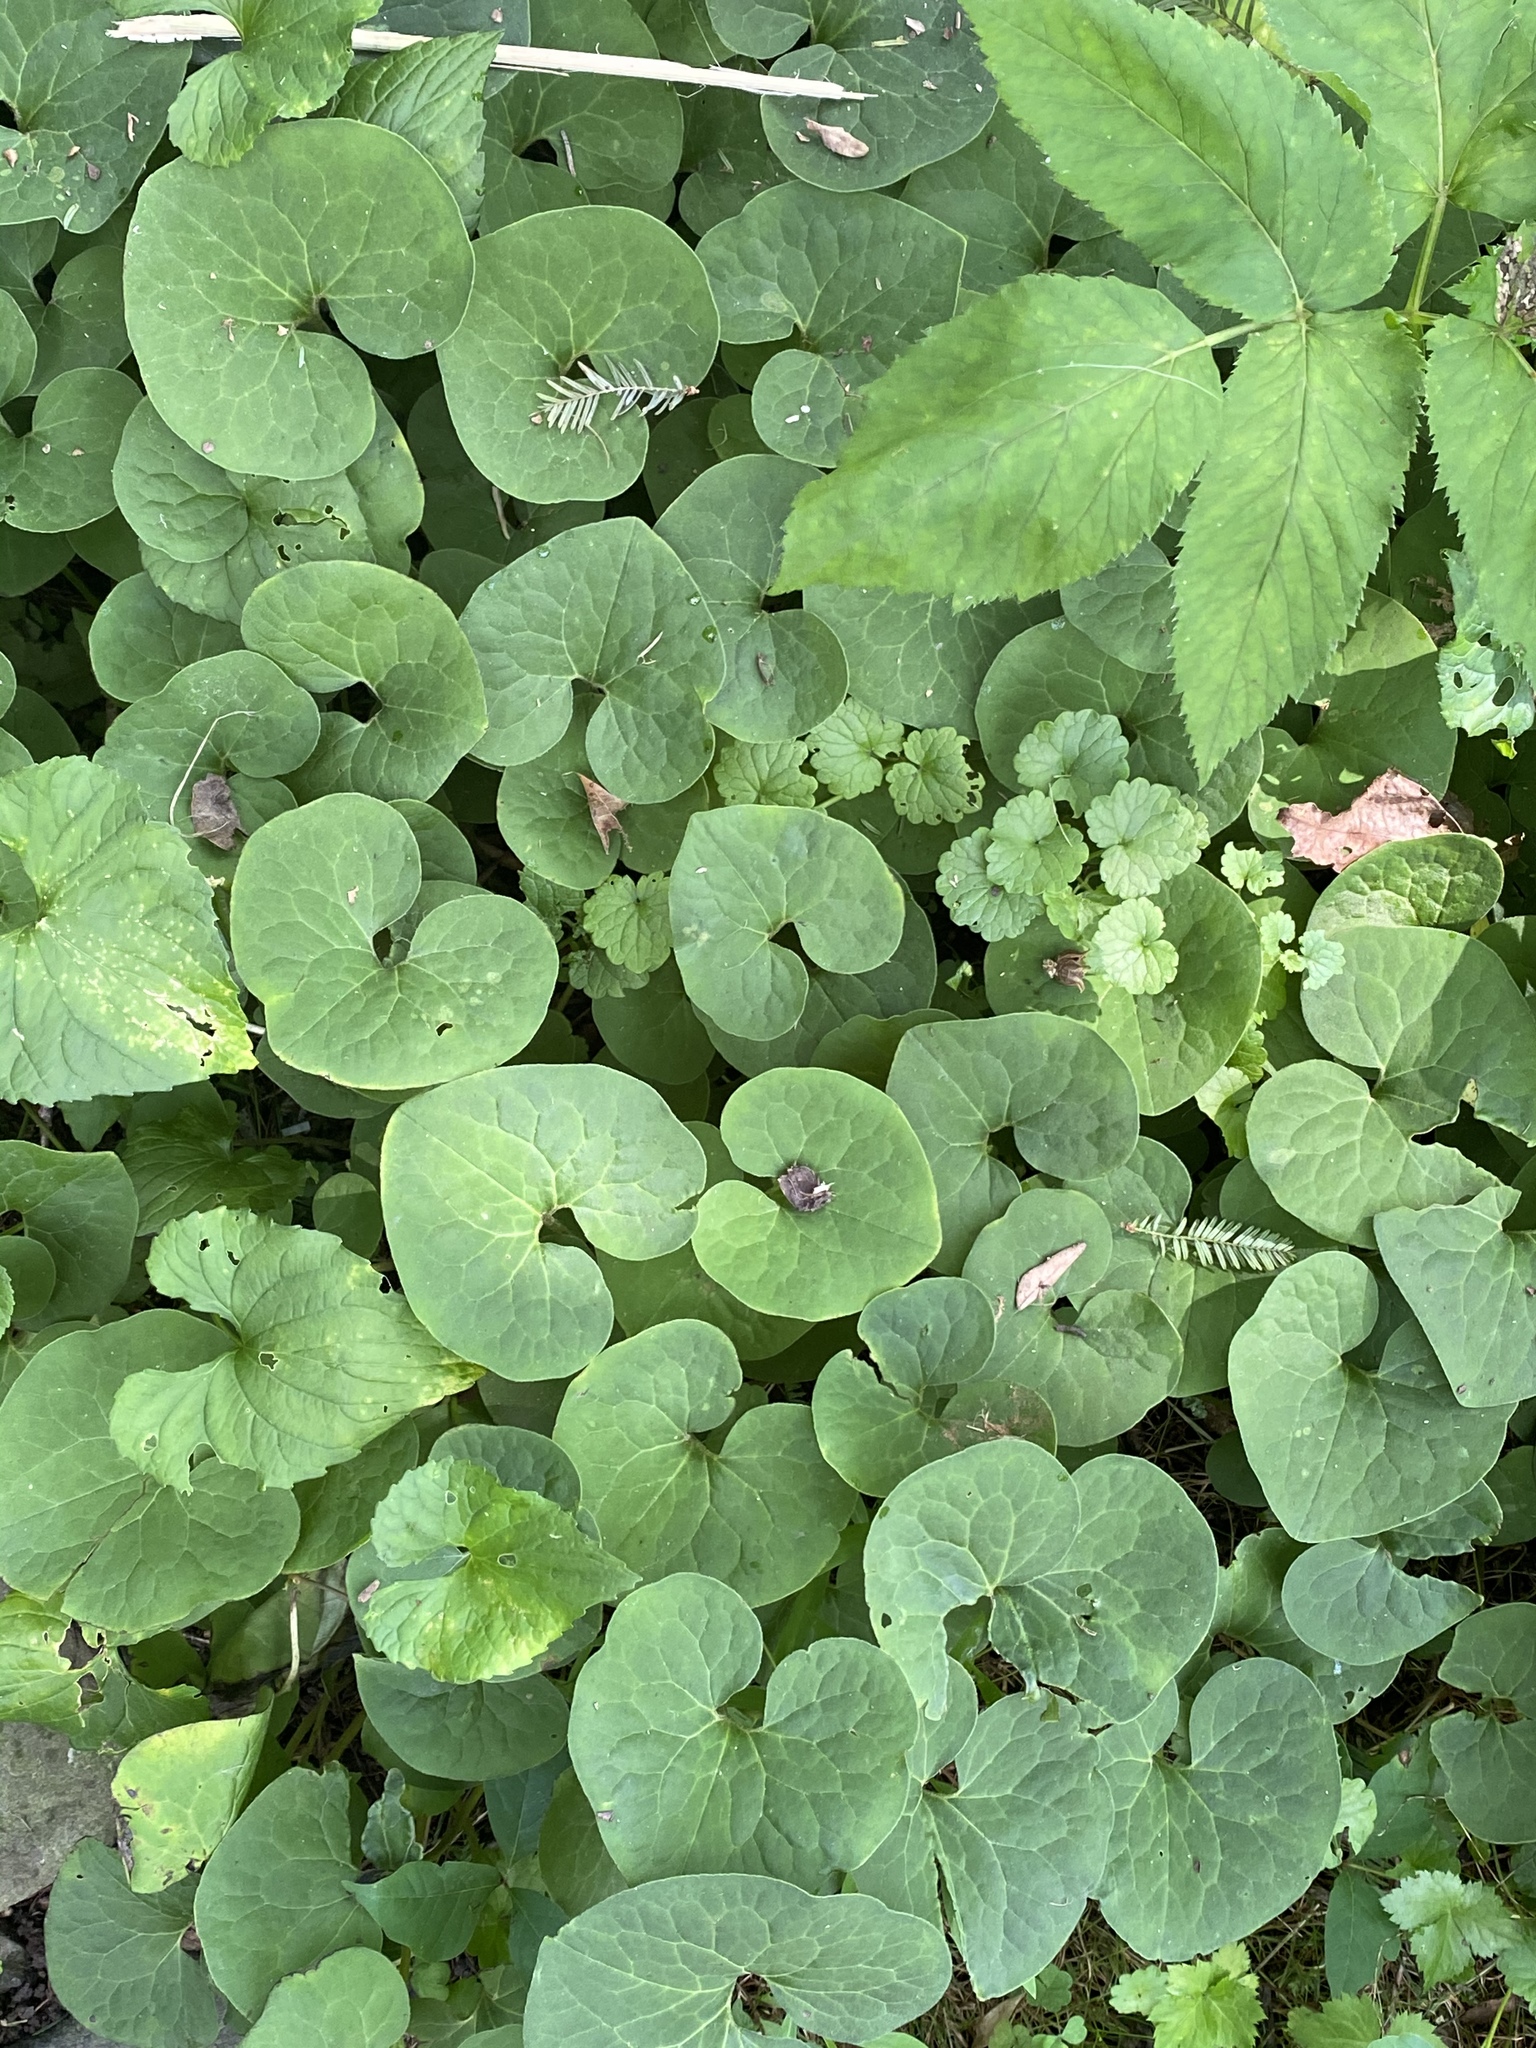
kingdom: Plantae
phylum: Tracheophyta
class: Magnoliopsida
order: Piperales
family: Aristolochiaceae
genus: Asarum
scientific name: Asarum canadense
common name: Wild ginger
